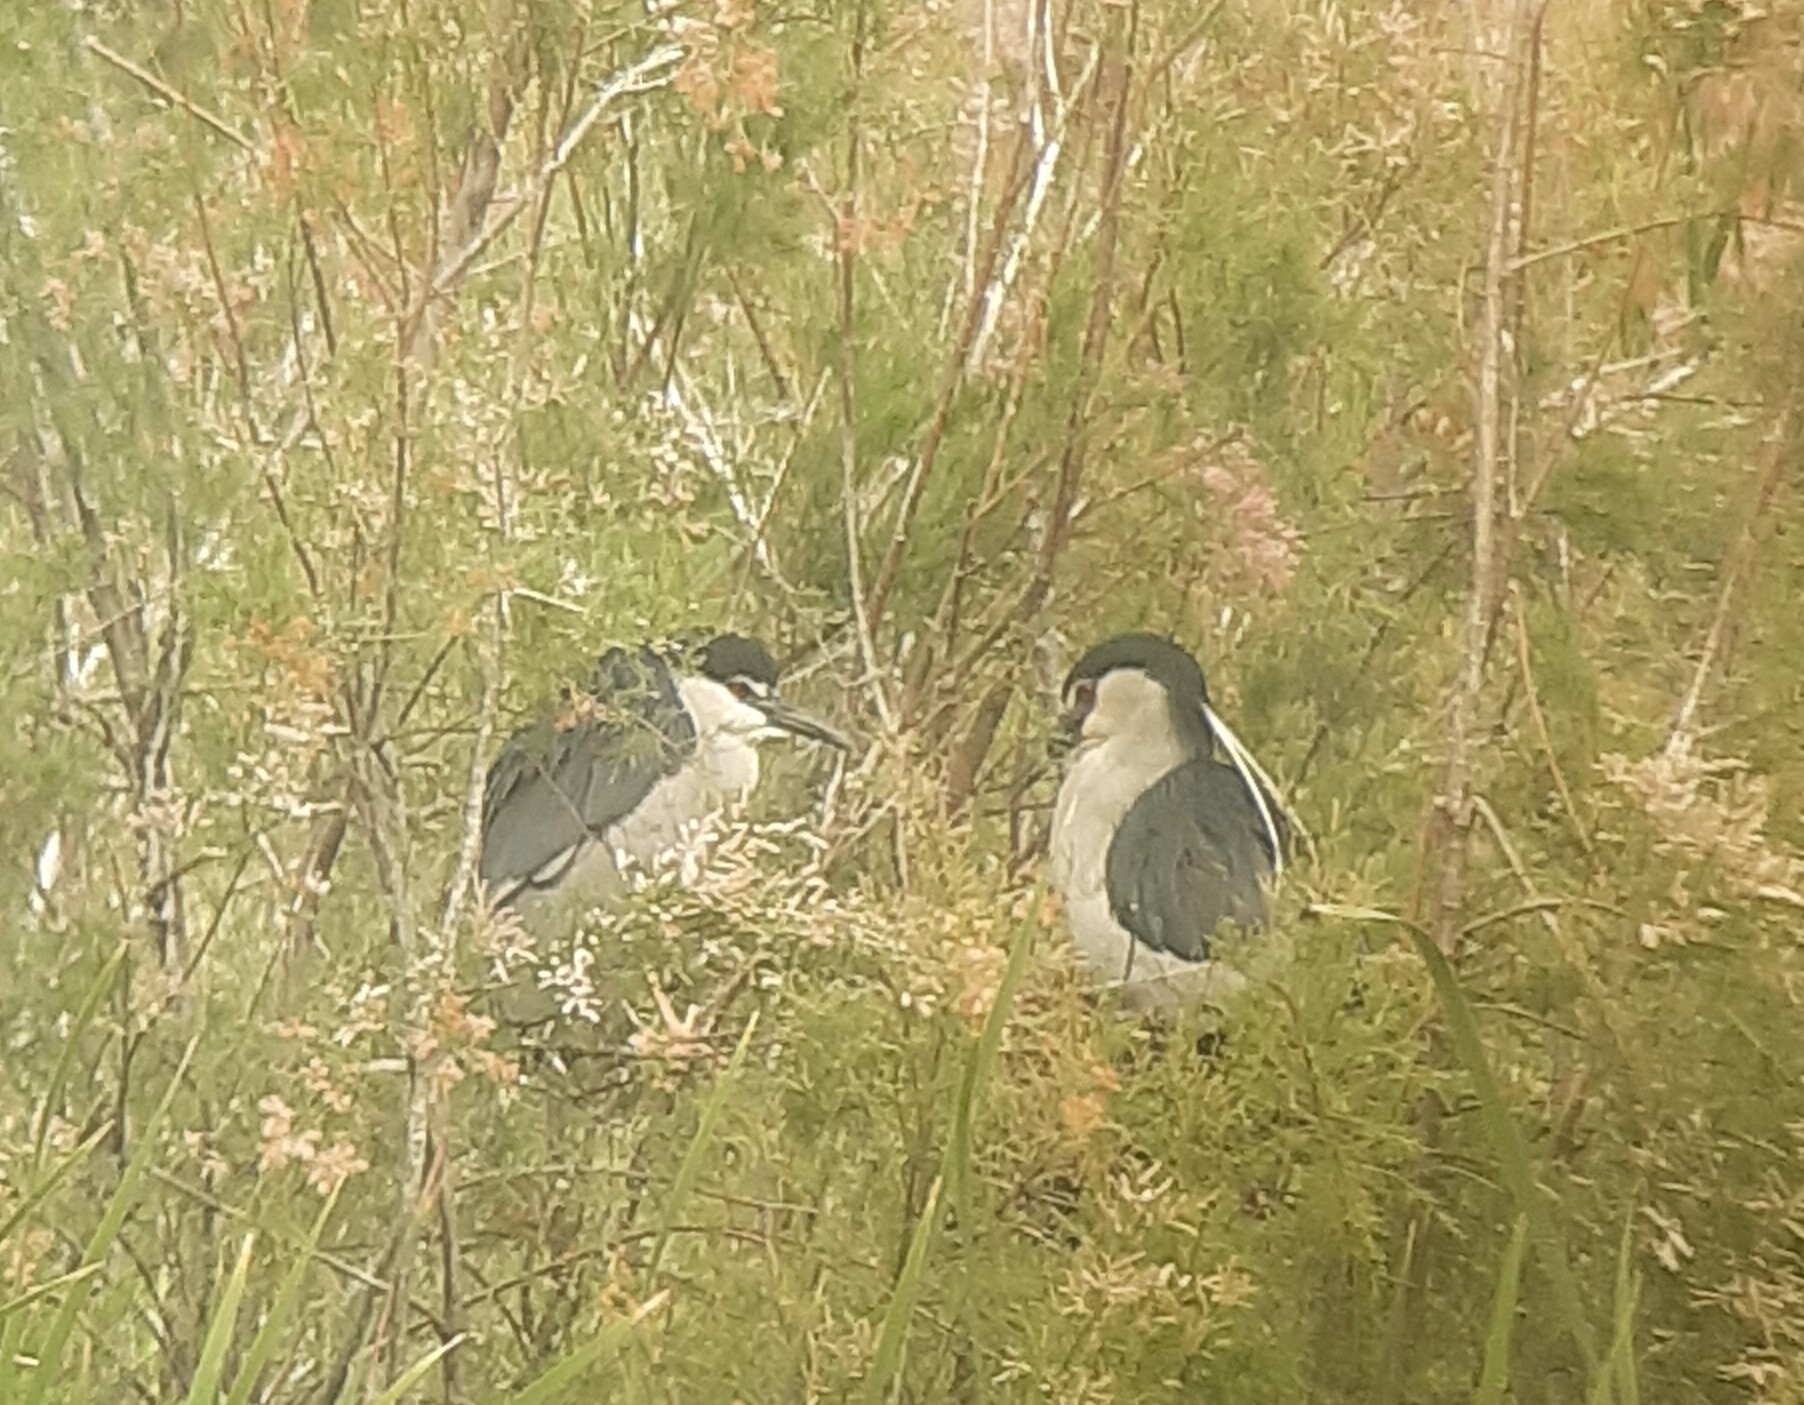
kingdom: Animalia
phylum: Chordata
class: Aves
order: Pelecaniformes
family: Ardeidae
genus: Nycticorax
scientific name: Nycticorax nycticorax
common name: Black-crowned night heron
